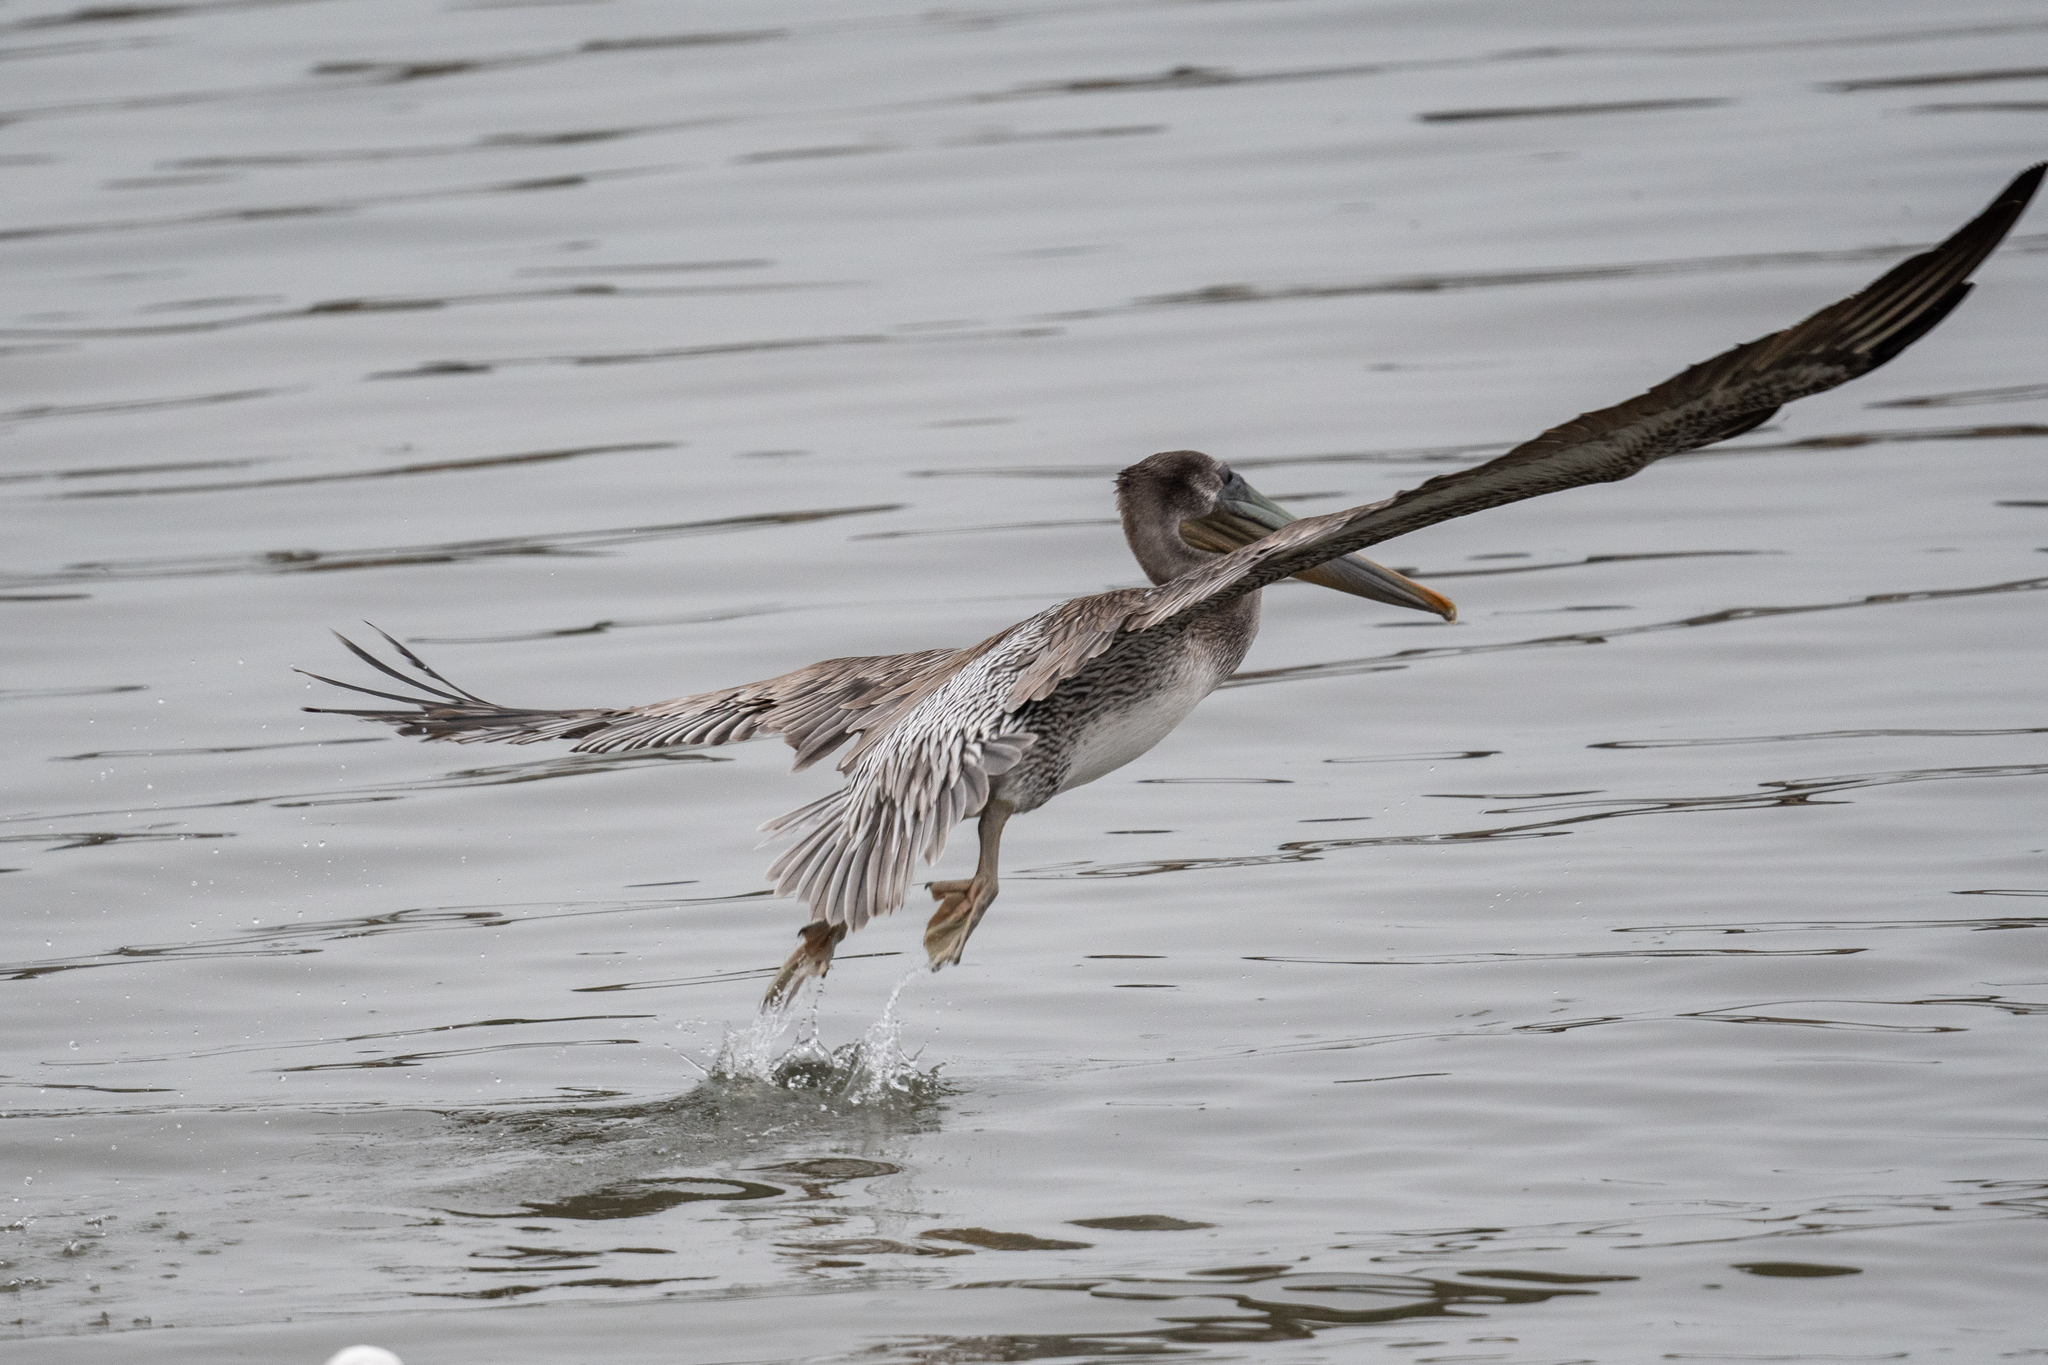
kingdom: Animalia
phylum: Chordata
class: Aves
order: Pelecaniformes
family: Pelecanidae
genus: Pelecanus
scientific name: Pelecanus occidentalis
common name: Brown pelican
